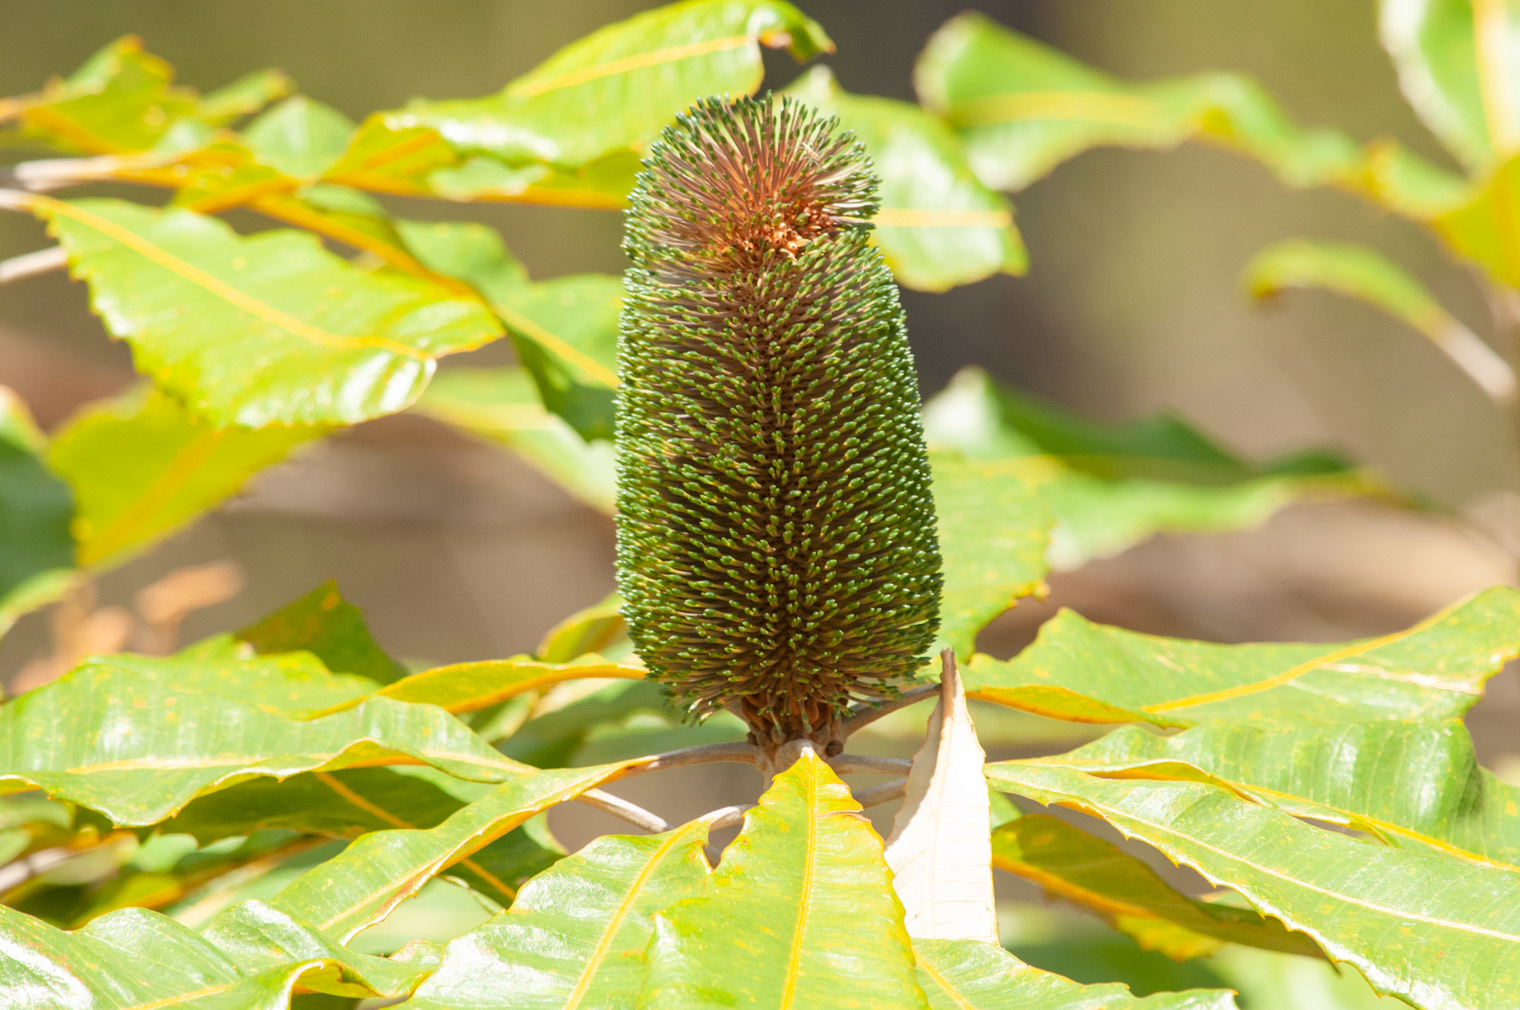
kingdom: Plantae
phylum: Tracheophyta
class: Magnoliopsida
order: Proteales
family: Proteaceae
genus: Banksia
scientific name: Banksia robur
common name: Broadleaf banksia
